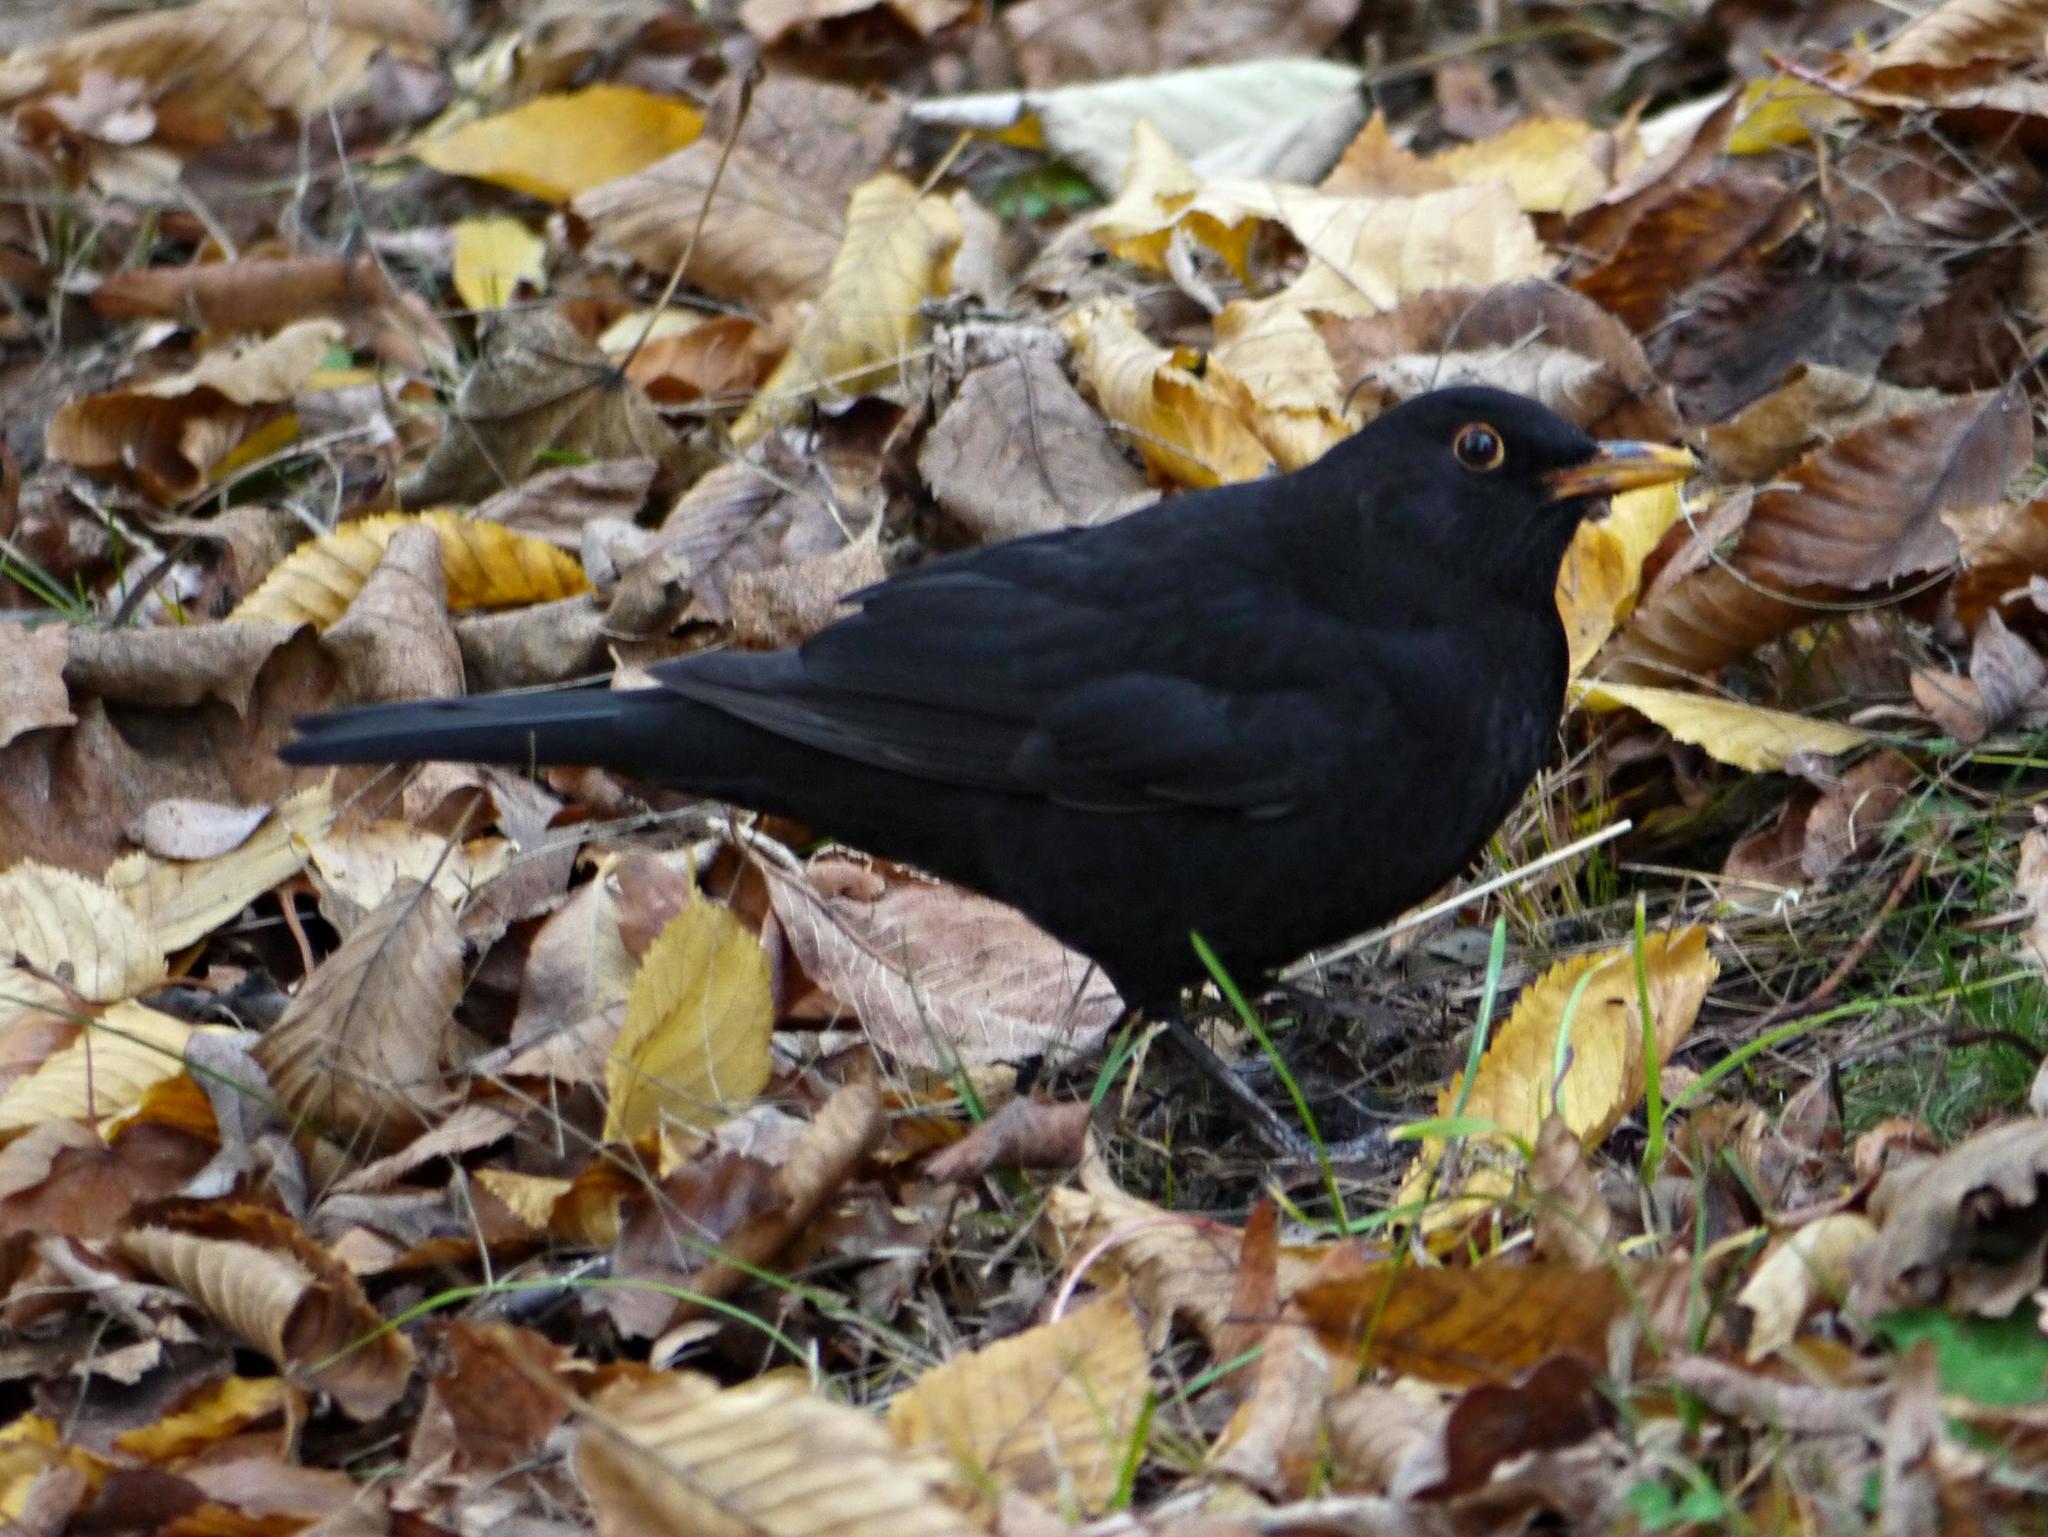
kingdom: Animalia
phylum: Chordata
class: Aves
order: Passeriformes
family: Turdidae
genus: Turdus
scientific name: Turdus merula
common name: Common blackbird
